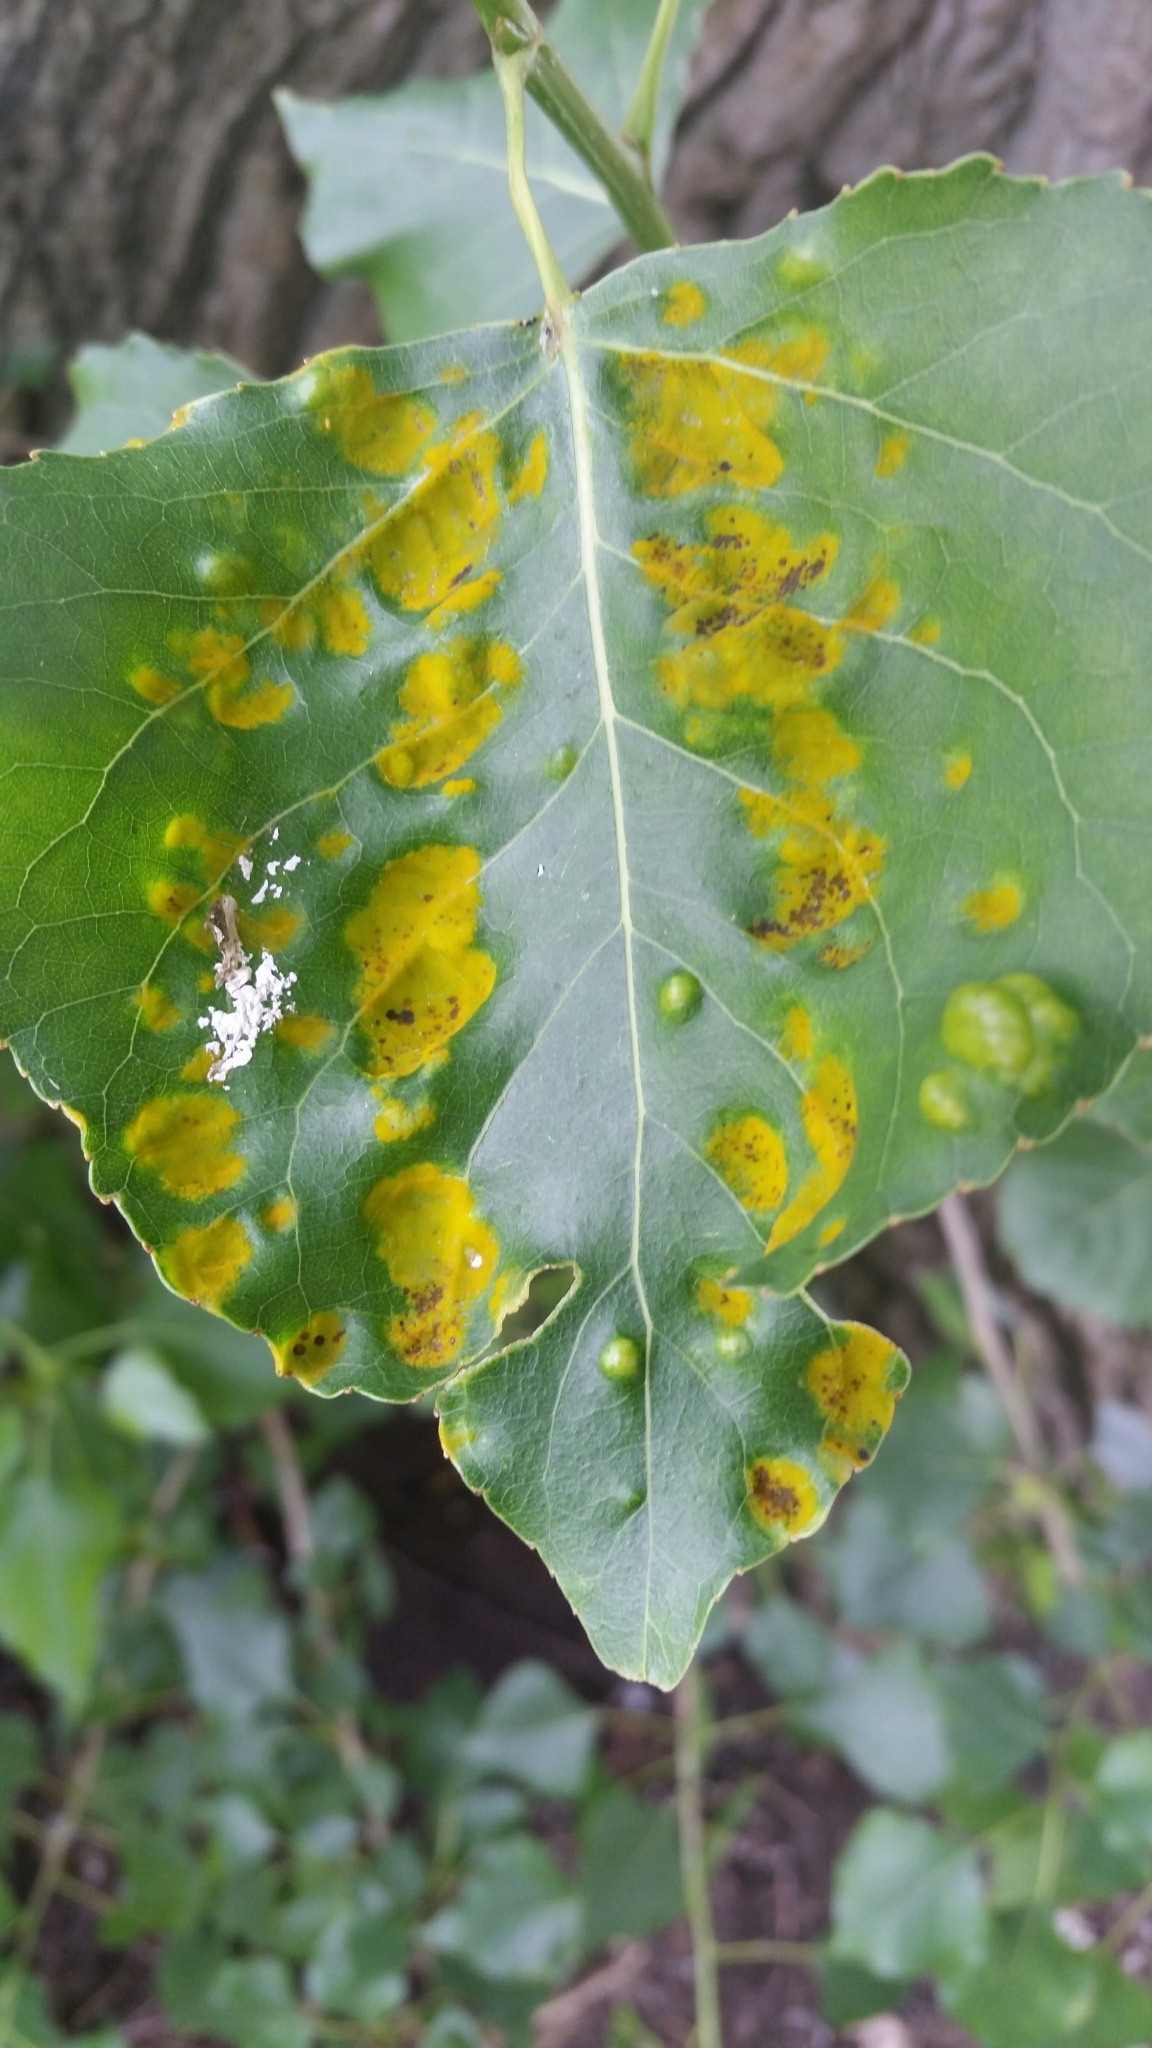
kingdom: Fungi
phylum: Ascomycota
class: Taphrinomycetes
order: Taphrinales
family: Taphrinaceae
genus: Taphrina
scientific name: Taphrina populina
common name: Poplar leaf curl
